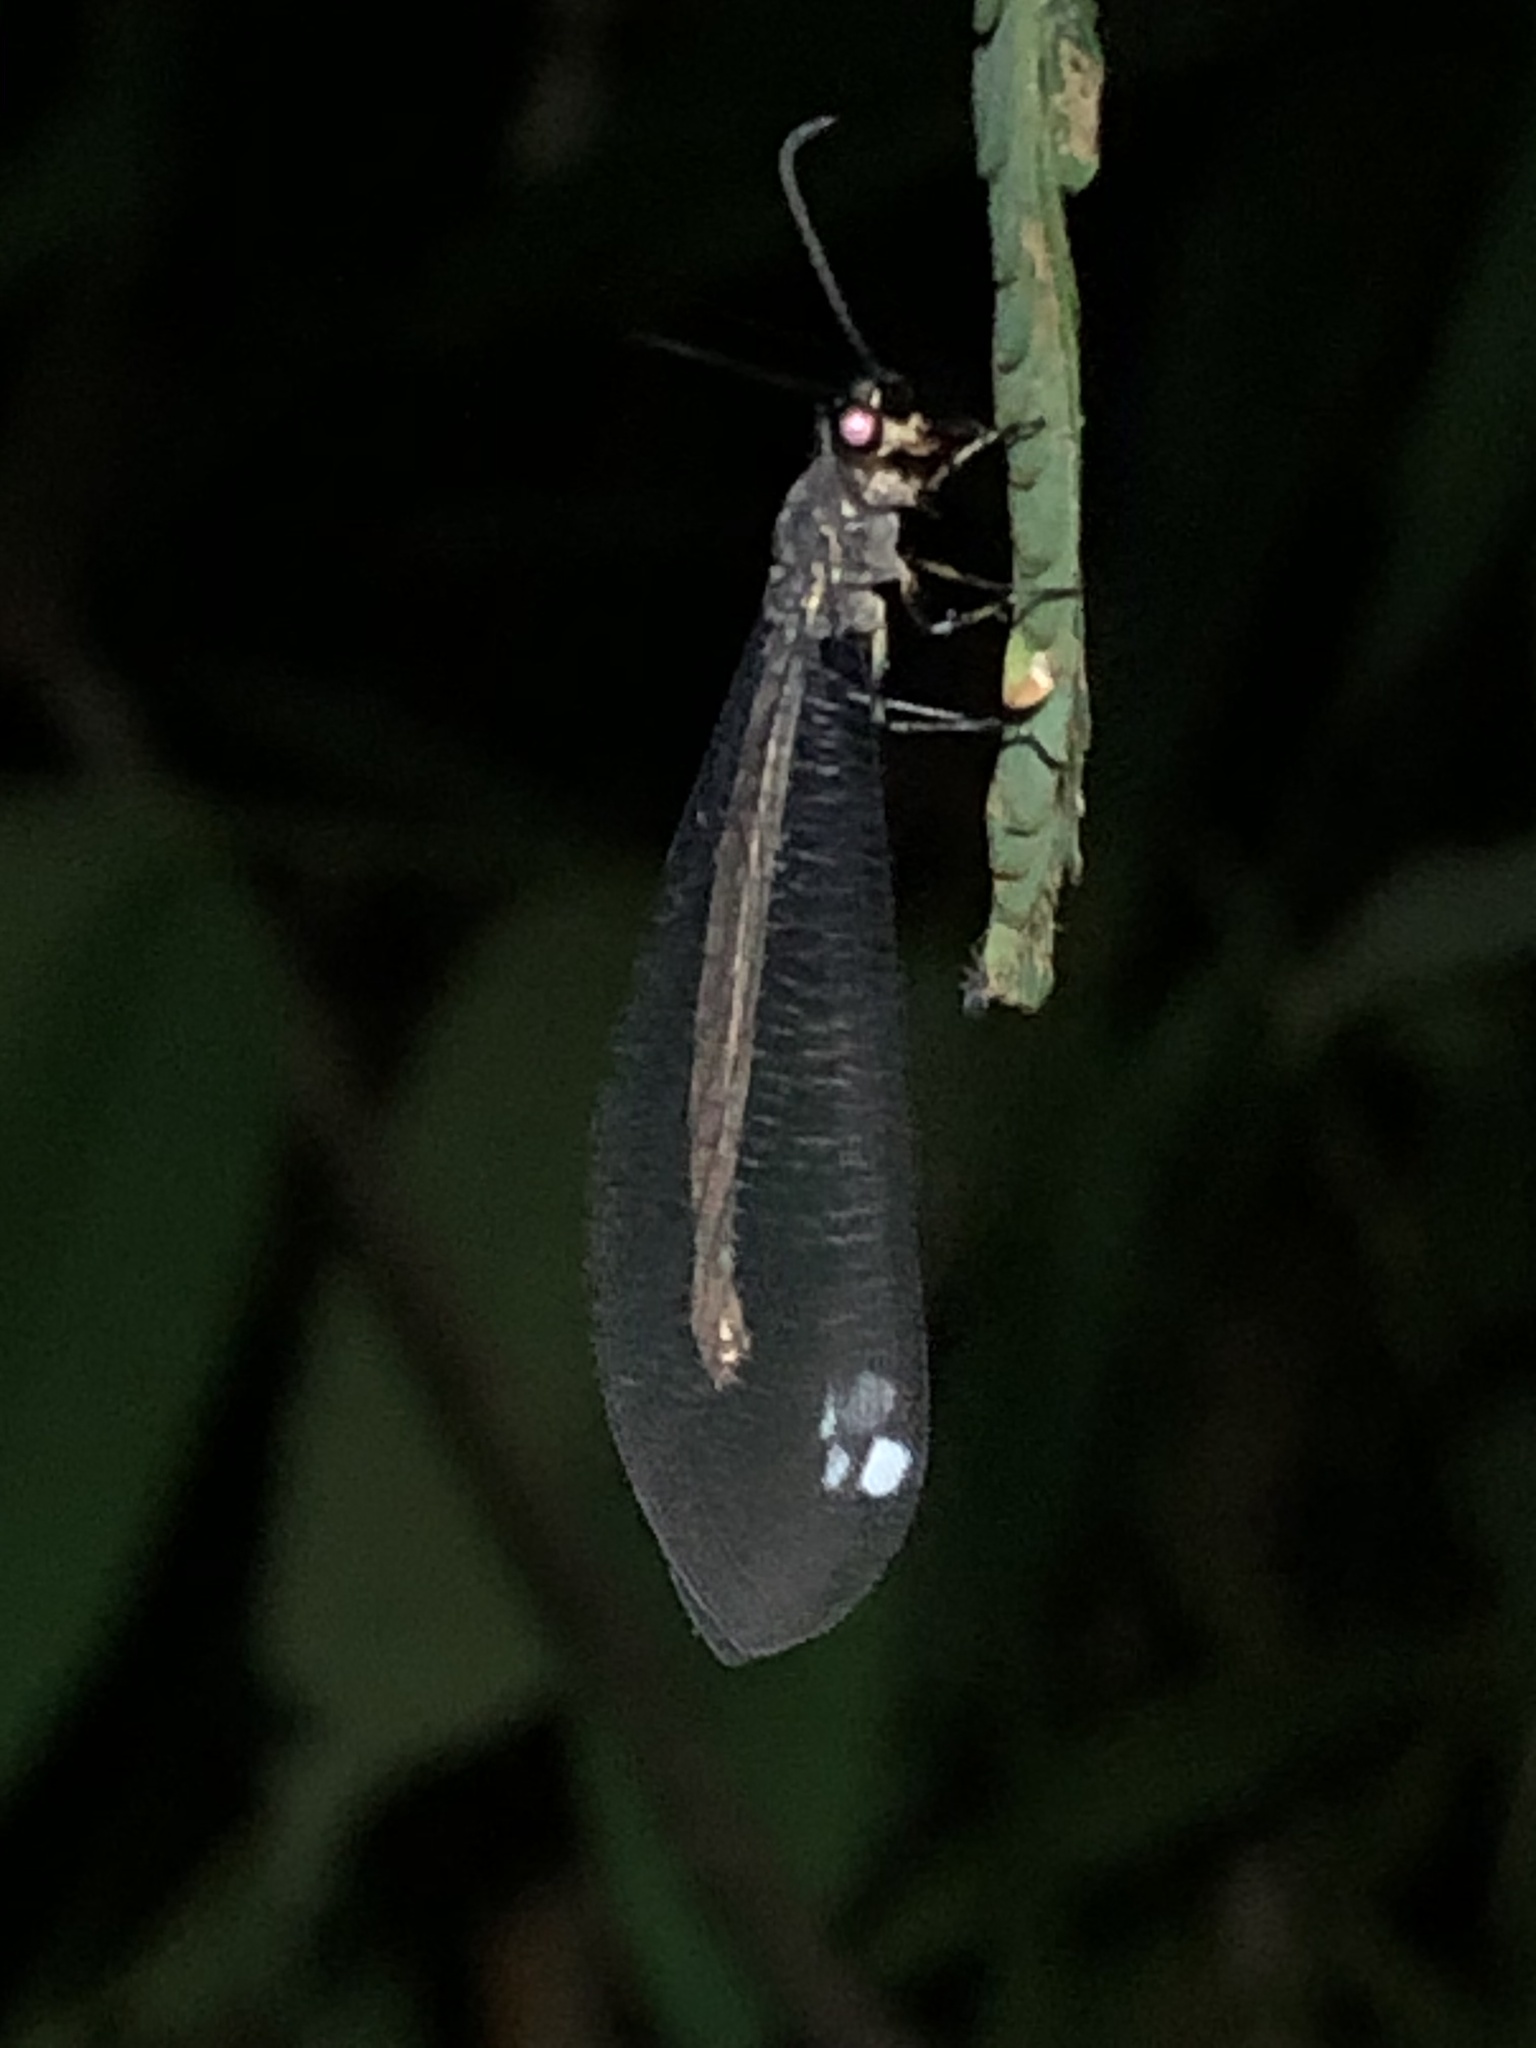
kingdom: Animalia
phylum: Arthropoda
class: Insecta
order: Neuroptera
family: Myrmeleontidae
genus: Myrmeleon
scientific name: Myrmeleon timidus
